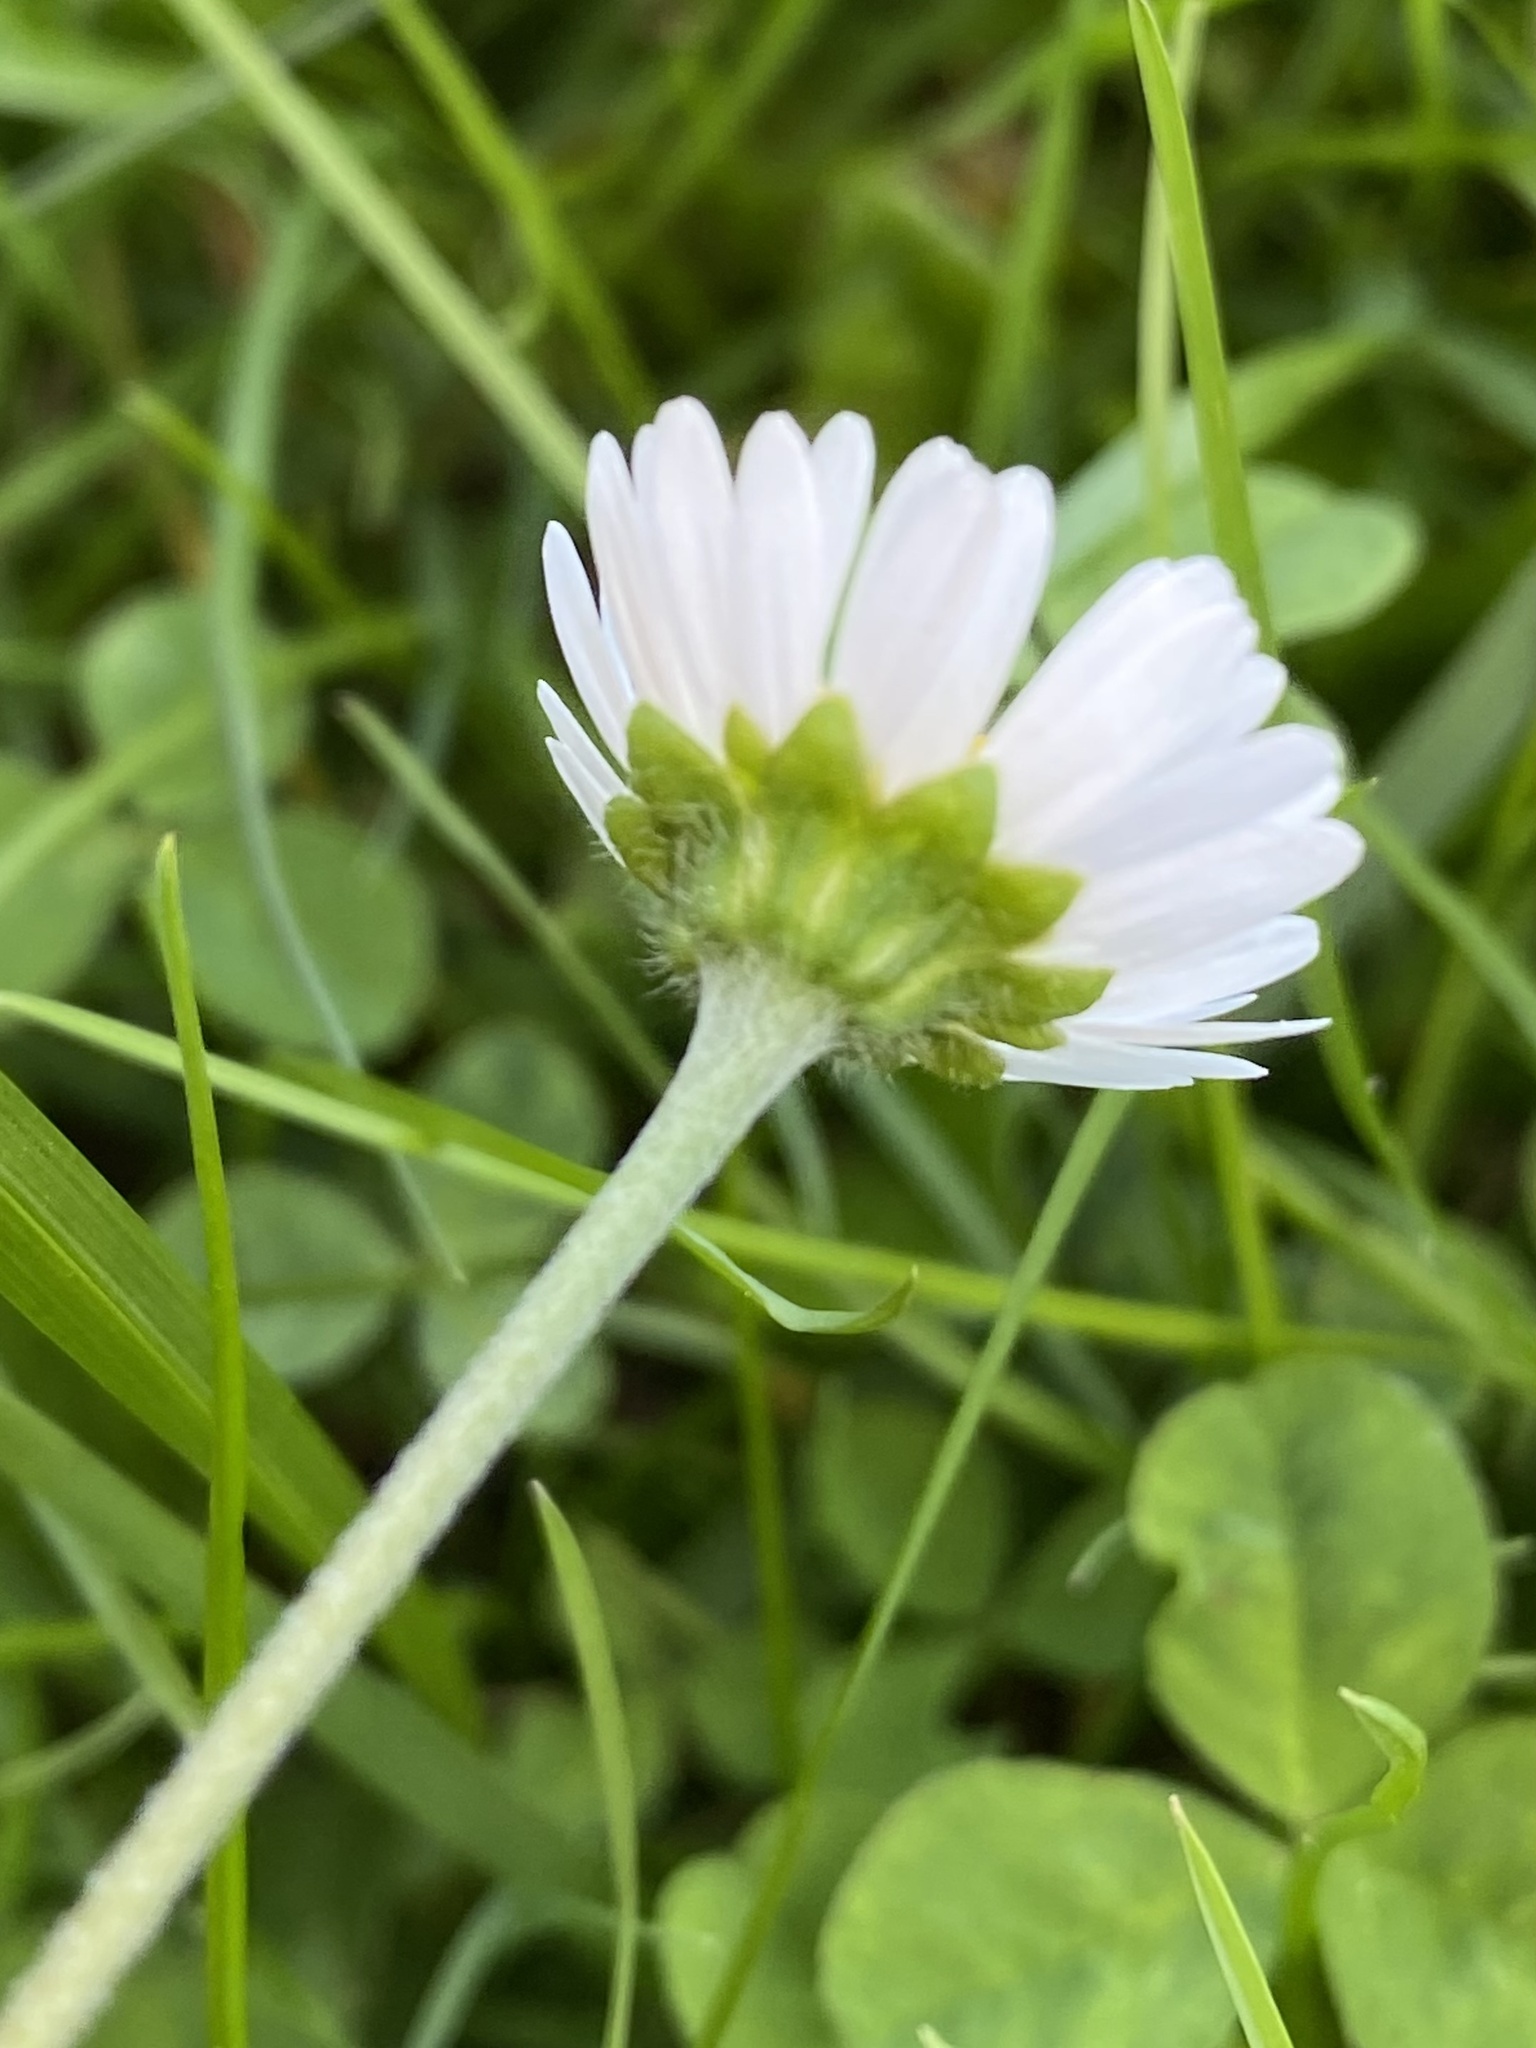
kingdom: Plantae
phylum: Tracheophyta
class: Magnoliopsida
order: Asterales
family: Asteraceae
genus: Bellis
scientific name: Bellis perennis
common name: Lawndaisy
